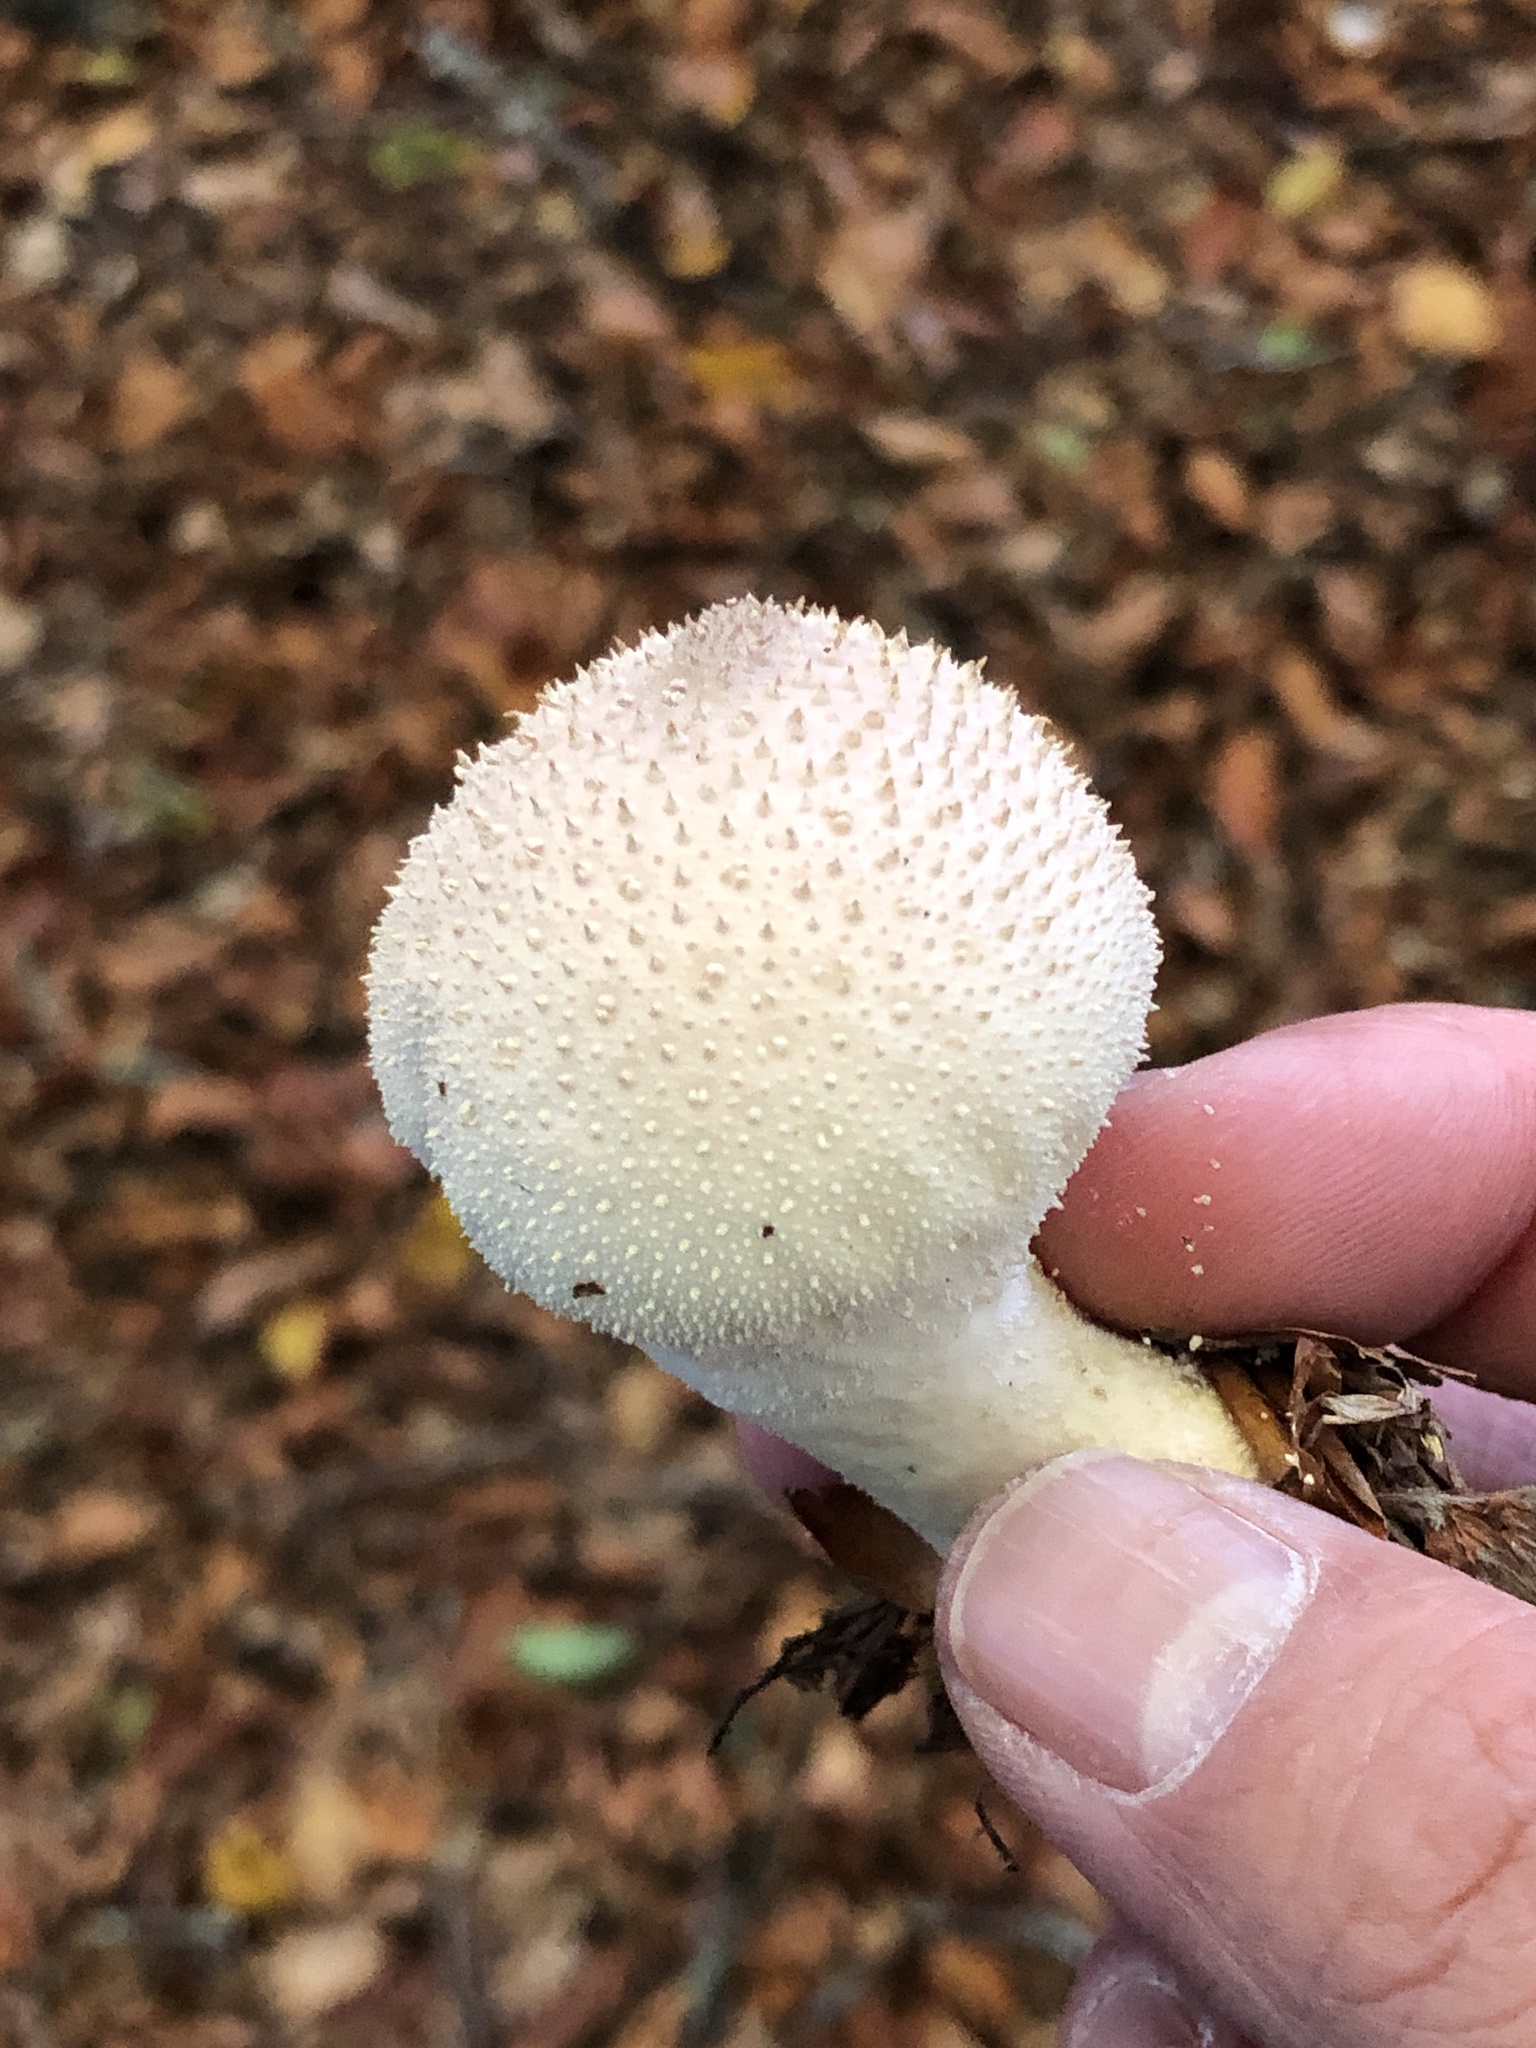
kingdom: Fungi
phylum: Basidiomycota
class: Agaricomycetes
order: Agaricales
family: Lycoperdaceae
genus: Lycoperdon
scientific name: Lycoperdon perlatum
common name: Common puffball
